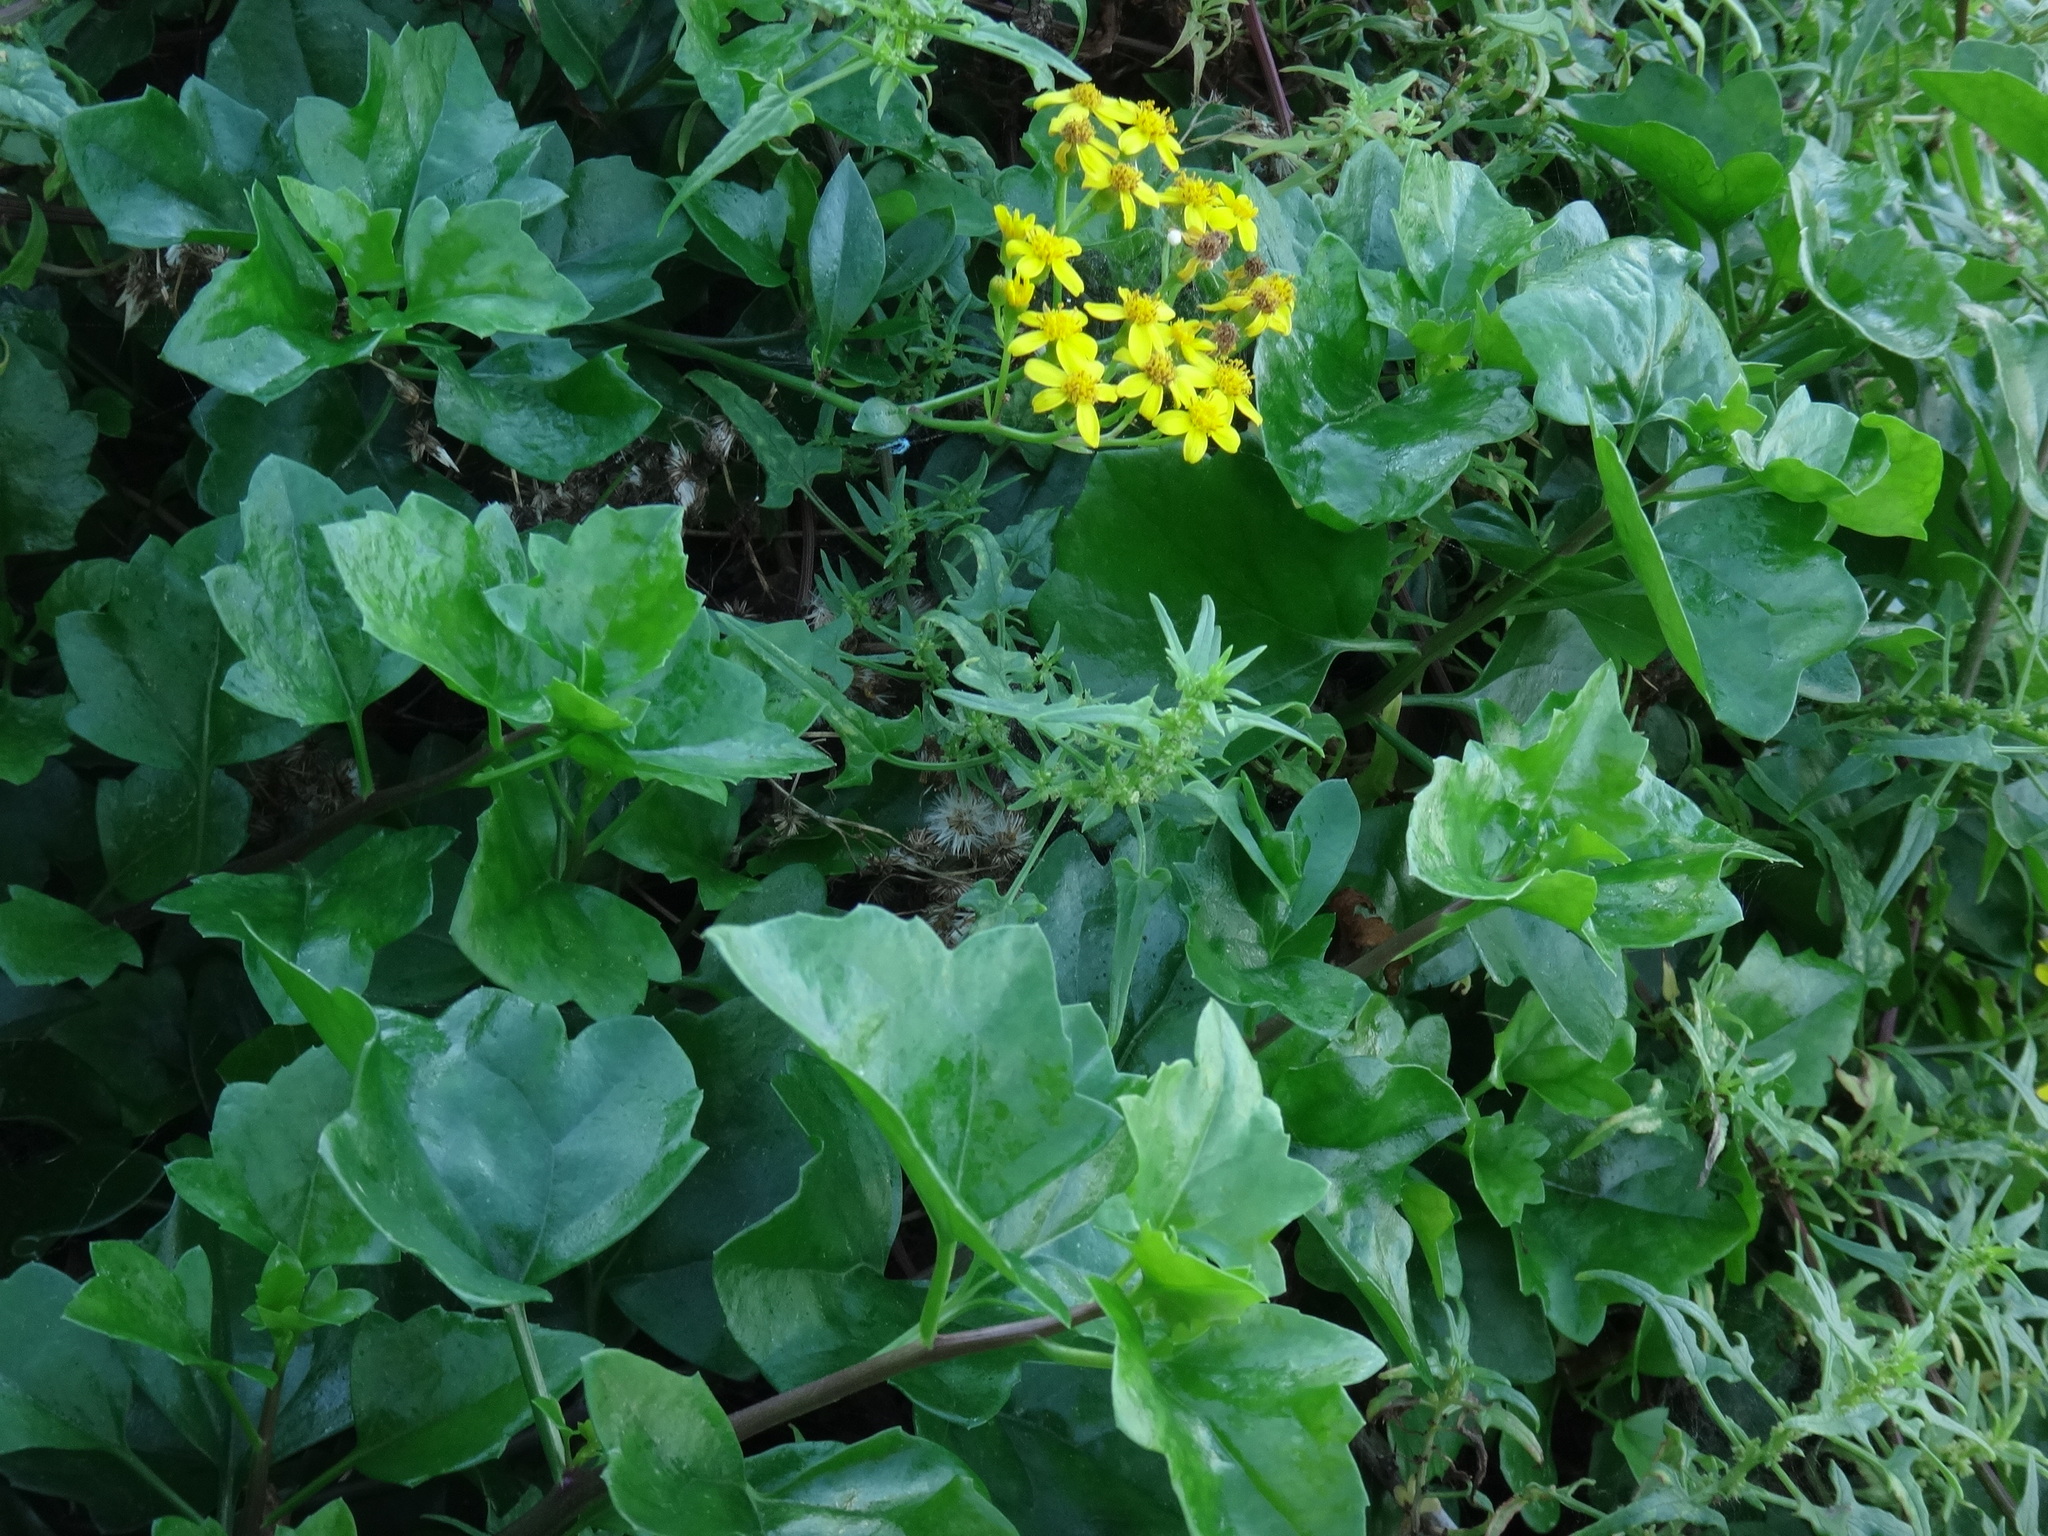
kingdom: Plantae
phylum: Tracheophyta
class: Magnoliopsida
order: Asterales
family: Asteraceae
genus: Senecio
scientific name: Senecio angulatus
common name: Climbing groundsel
